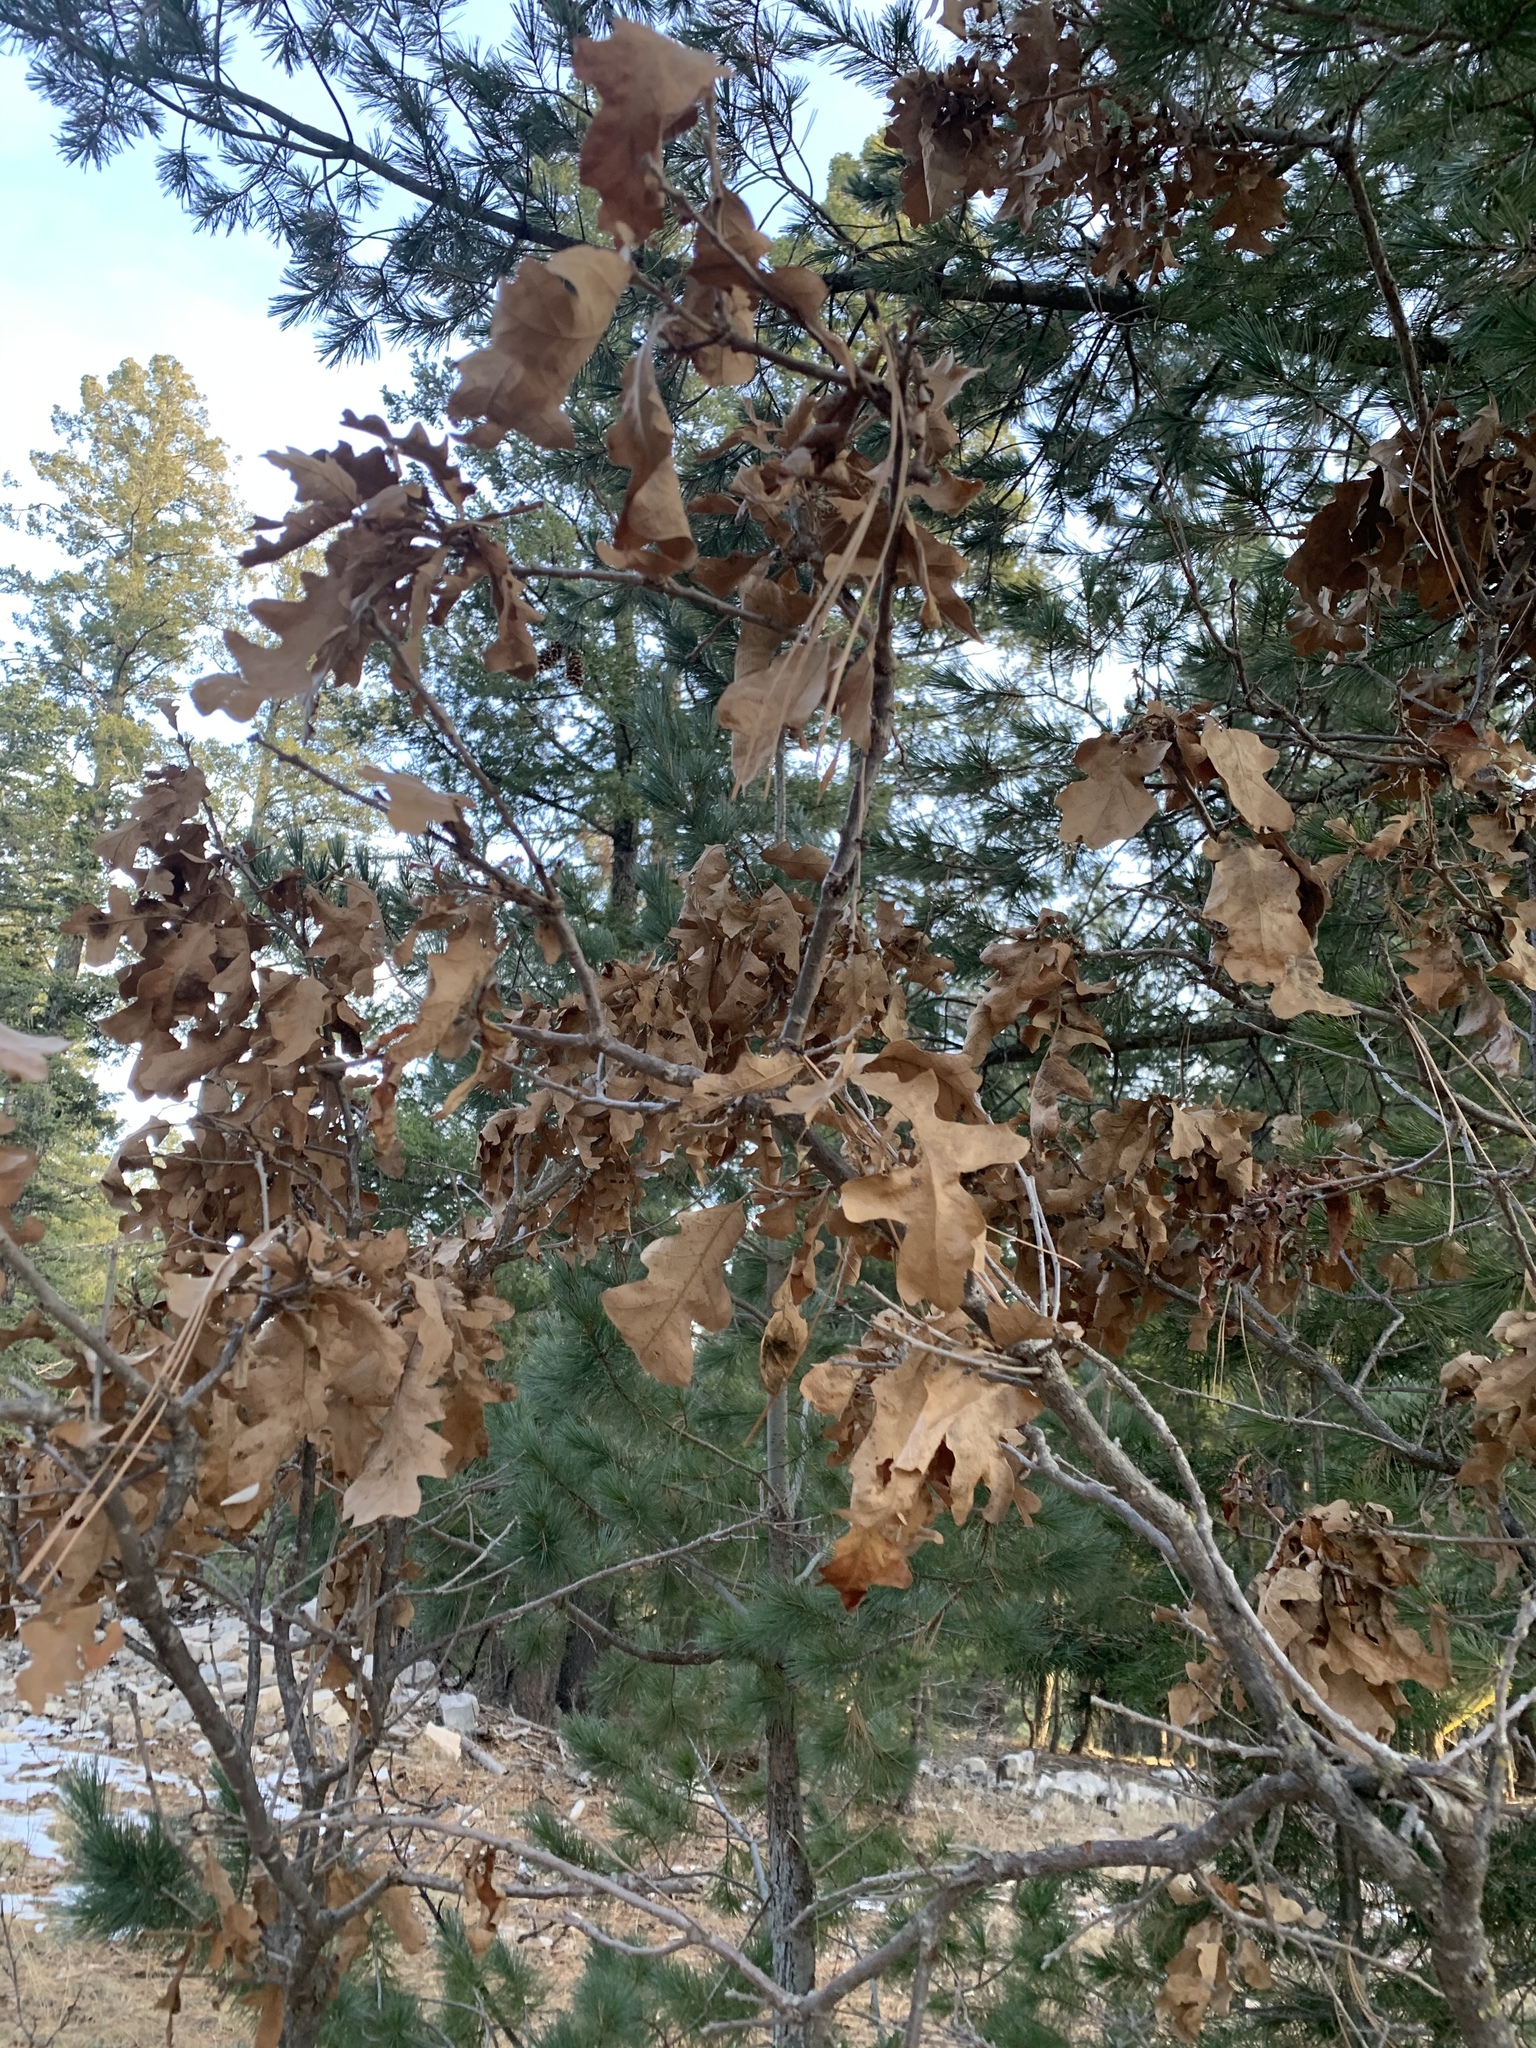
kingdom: Plantae
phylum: Tracheophyta
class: Magnoliopsida
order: Fagales
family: Fagaceae
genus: Quercus
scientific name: Quercus gambelii
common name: Gambel oak
